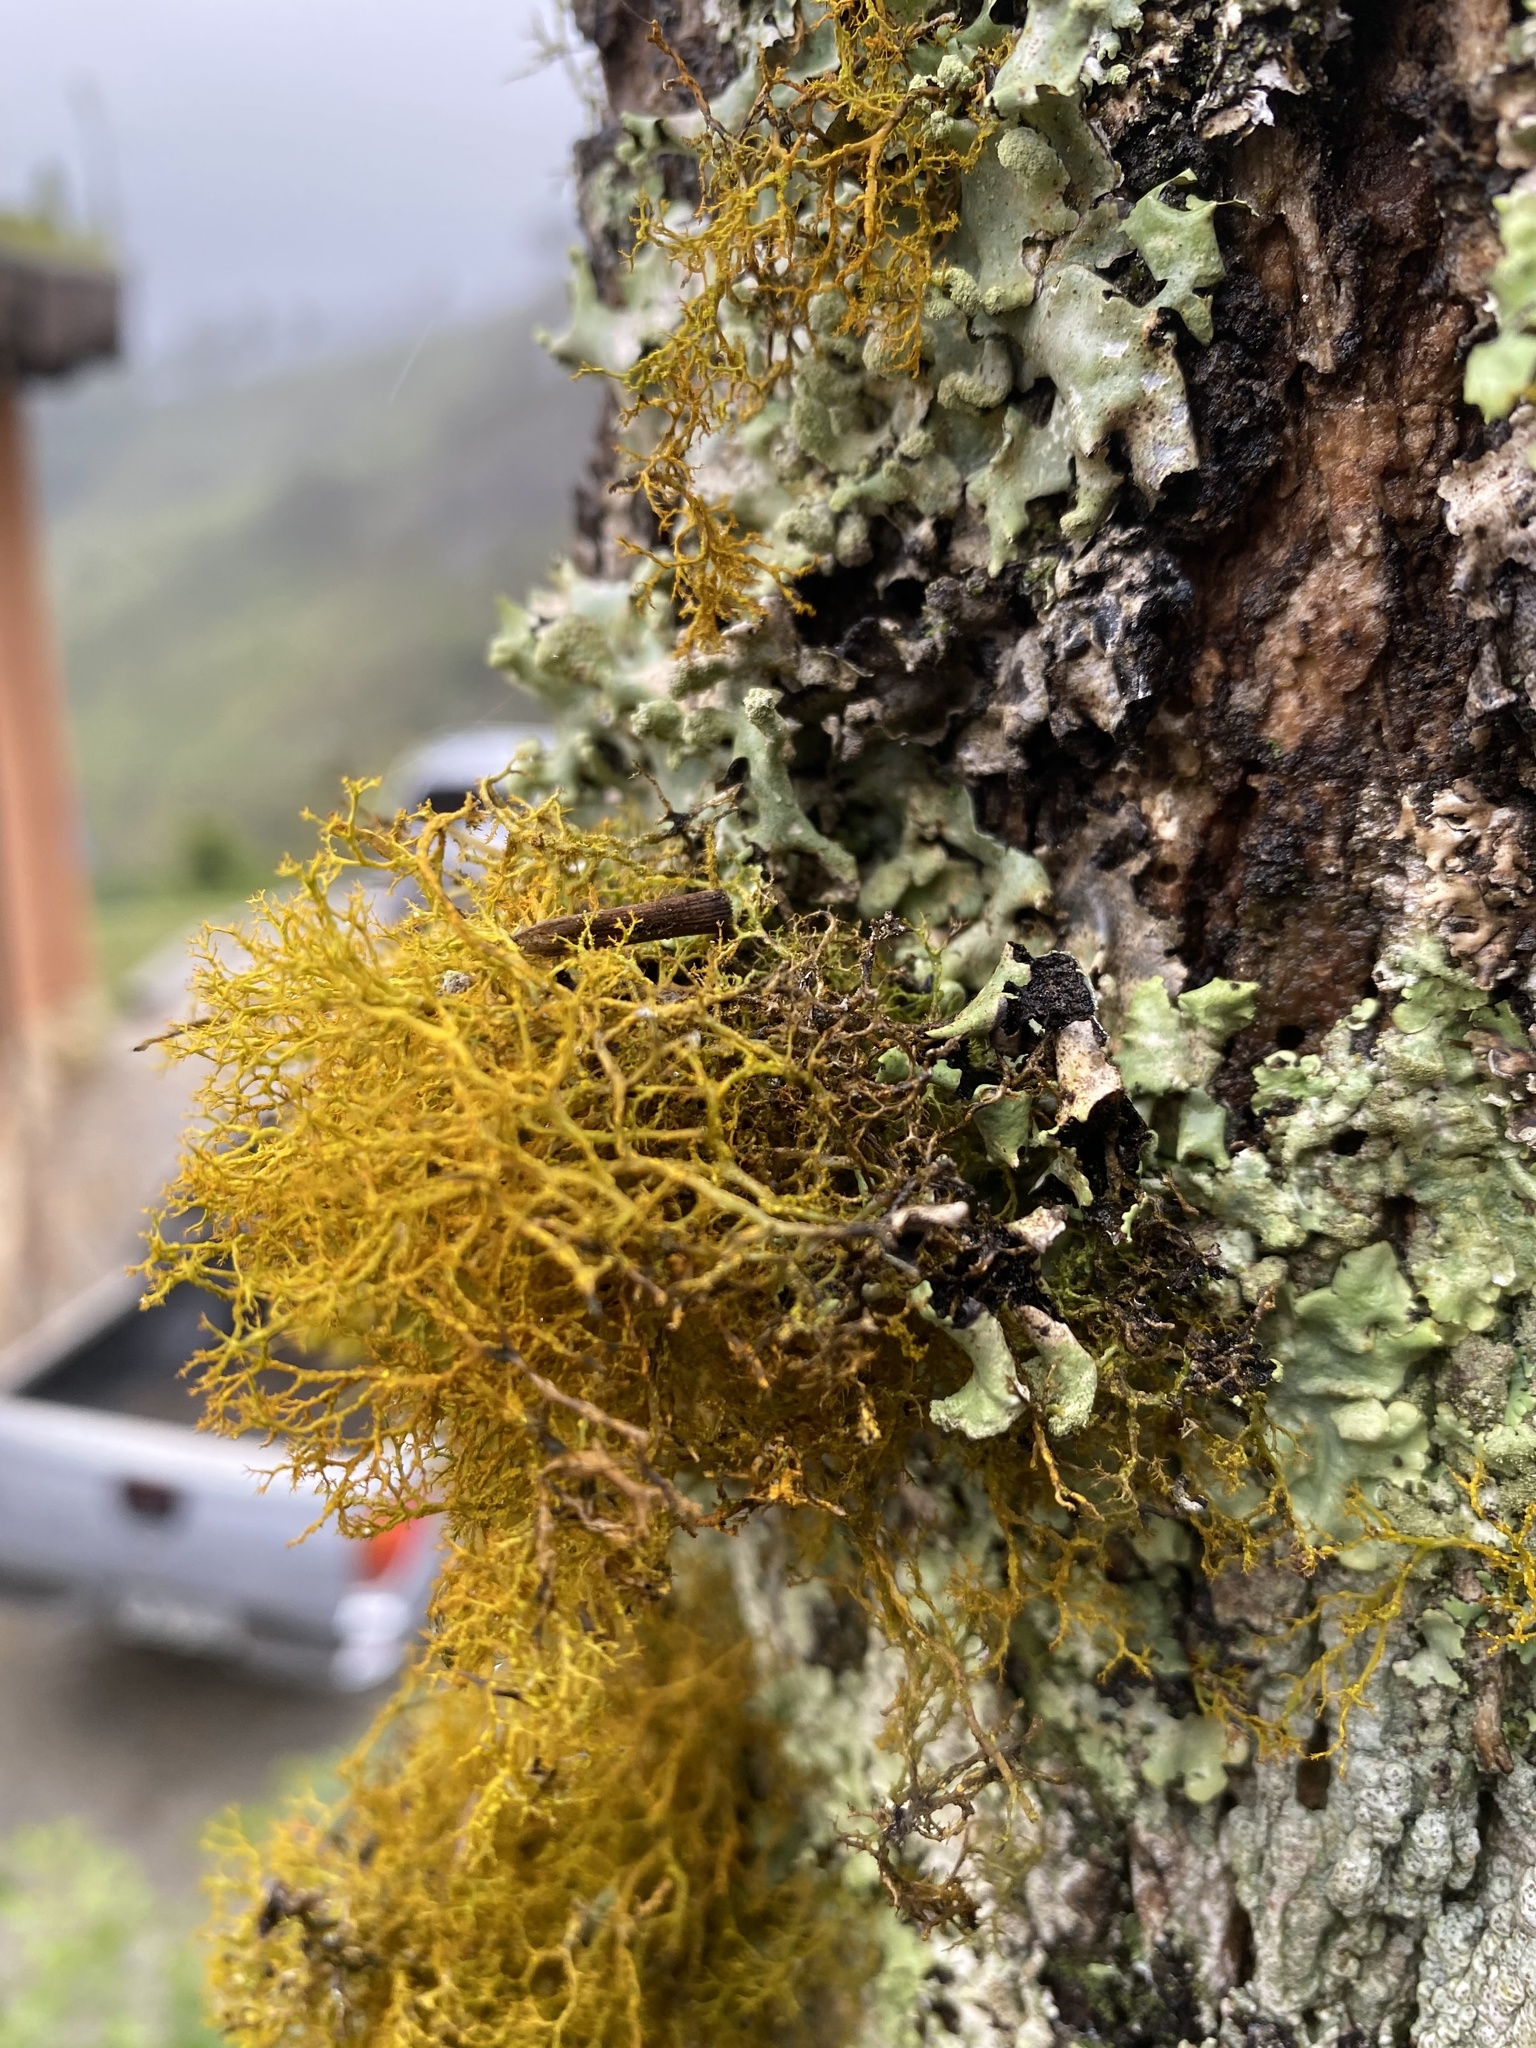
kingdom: Fungi
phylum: Ascomycota
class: Lecanoromycetes
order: Teloschistales
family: Teloschistaceae
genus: Teloschistes
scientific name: Teloschistes flavicans
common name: Golden hair-lichen
